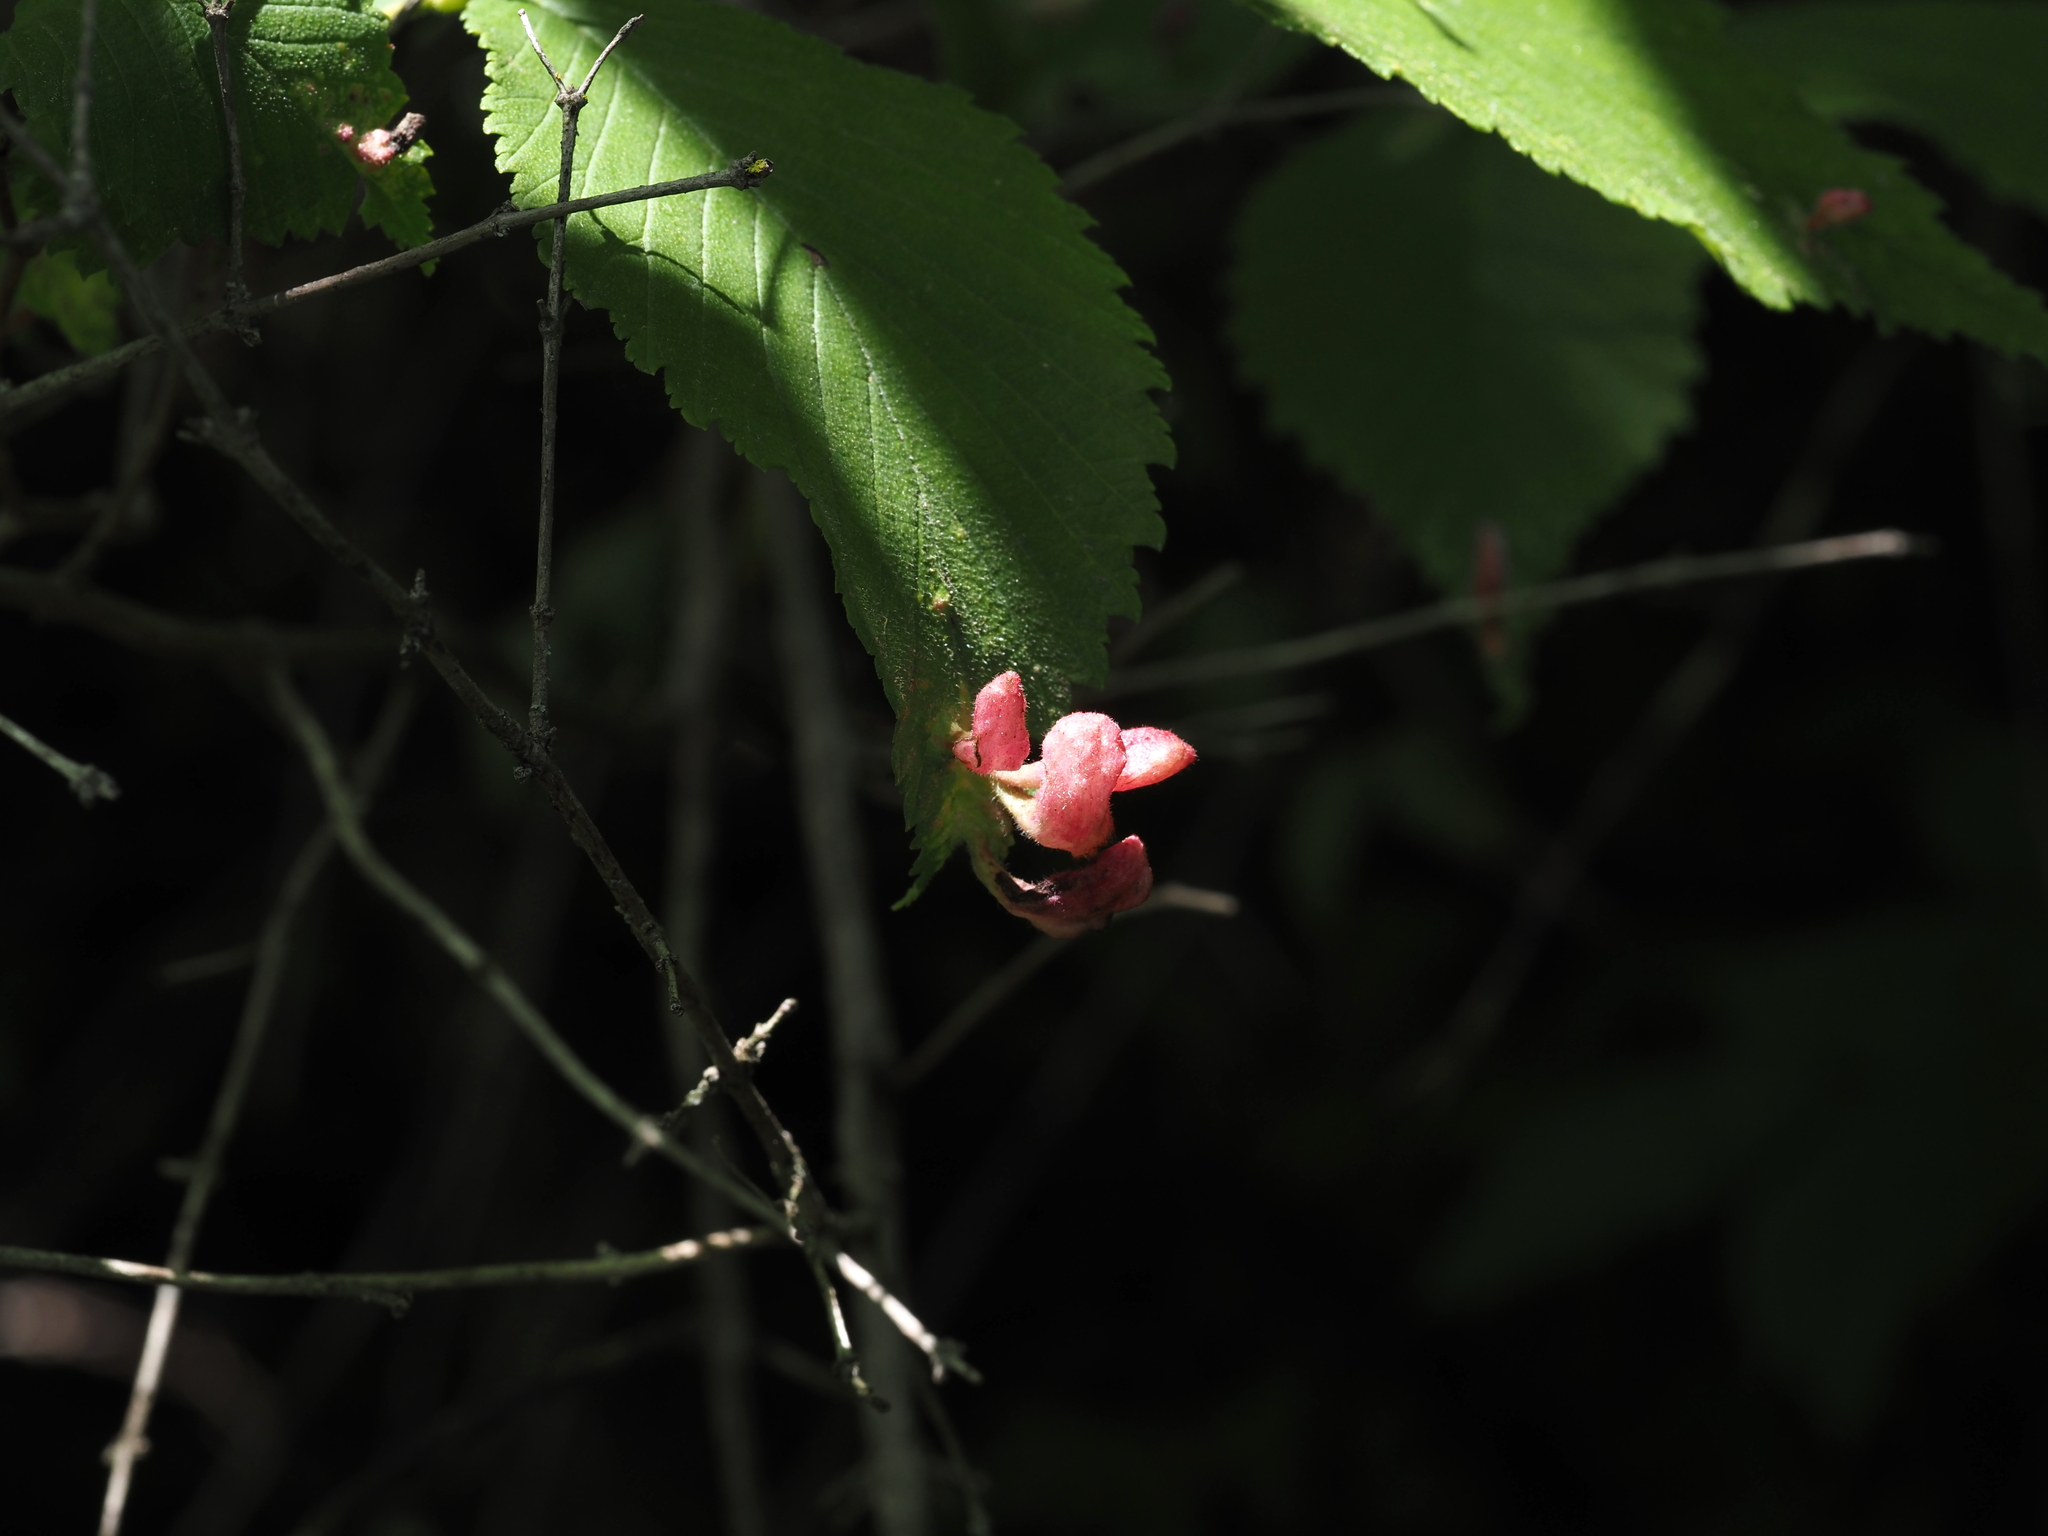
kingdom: Animalia
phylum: Arthropoda
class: Insecta
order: Hemiptera
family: Aphididae
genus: Tetraneura
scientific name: Tetraneura nigriabdominalis
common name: Aphid
